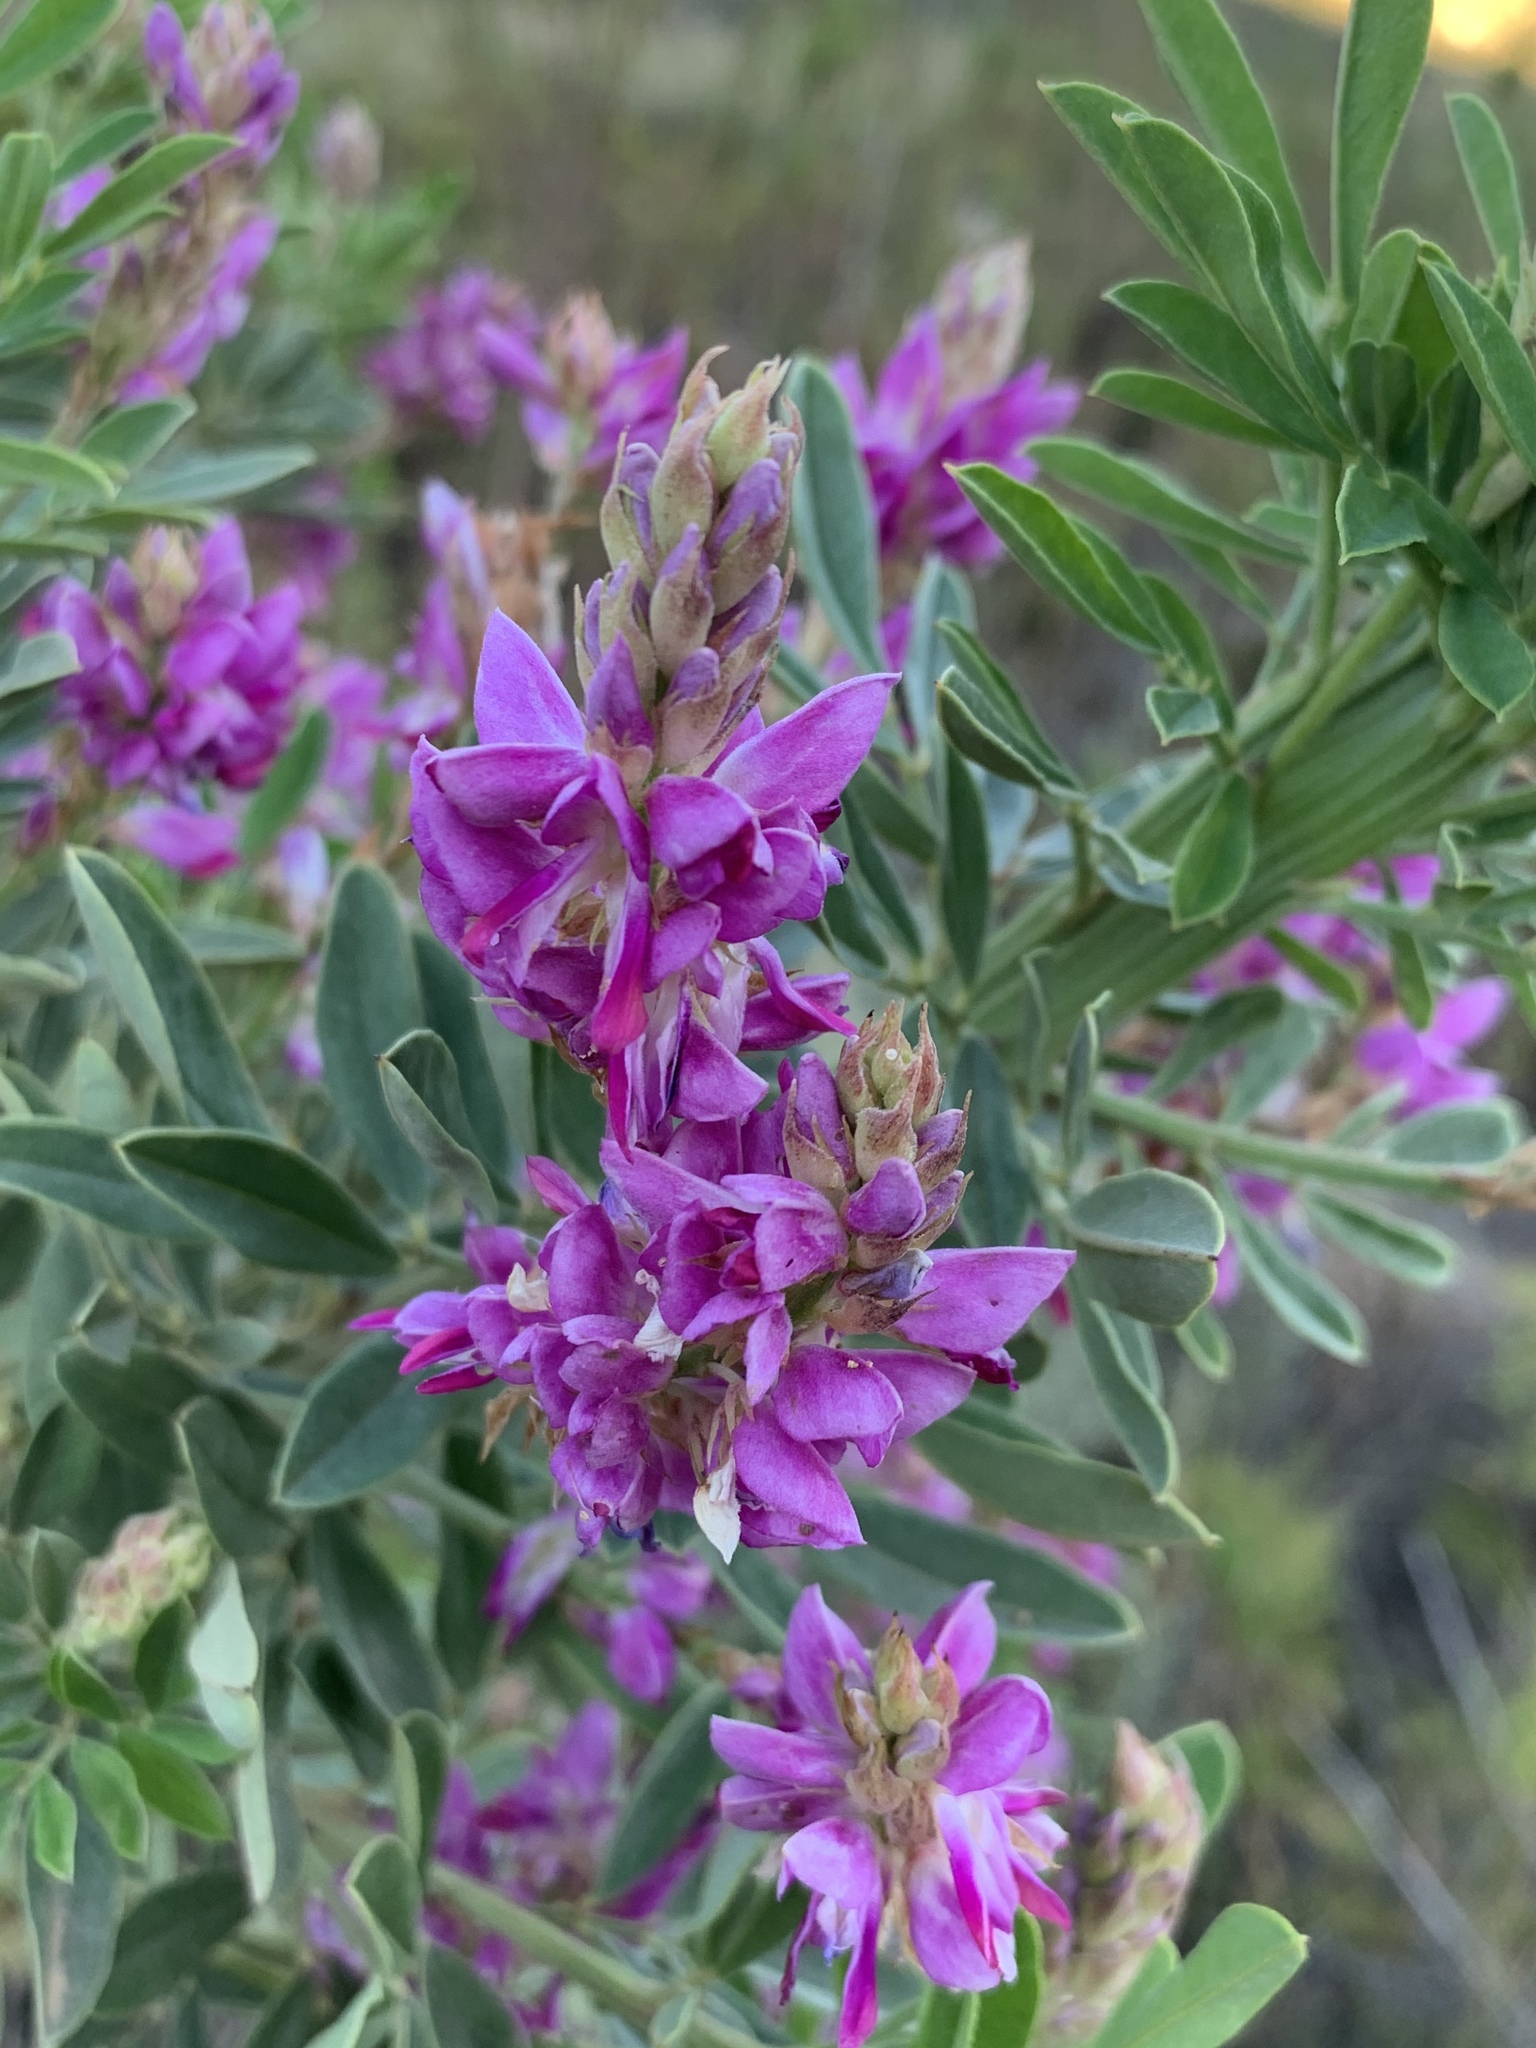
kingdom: Plantae
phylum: Tracheophyta
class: Magnoliopsida
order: Fabales
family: Fabaceae
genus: Indigofera
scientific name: Indigofera cytisoides
